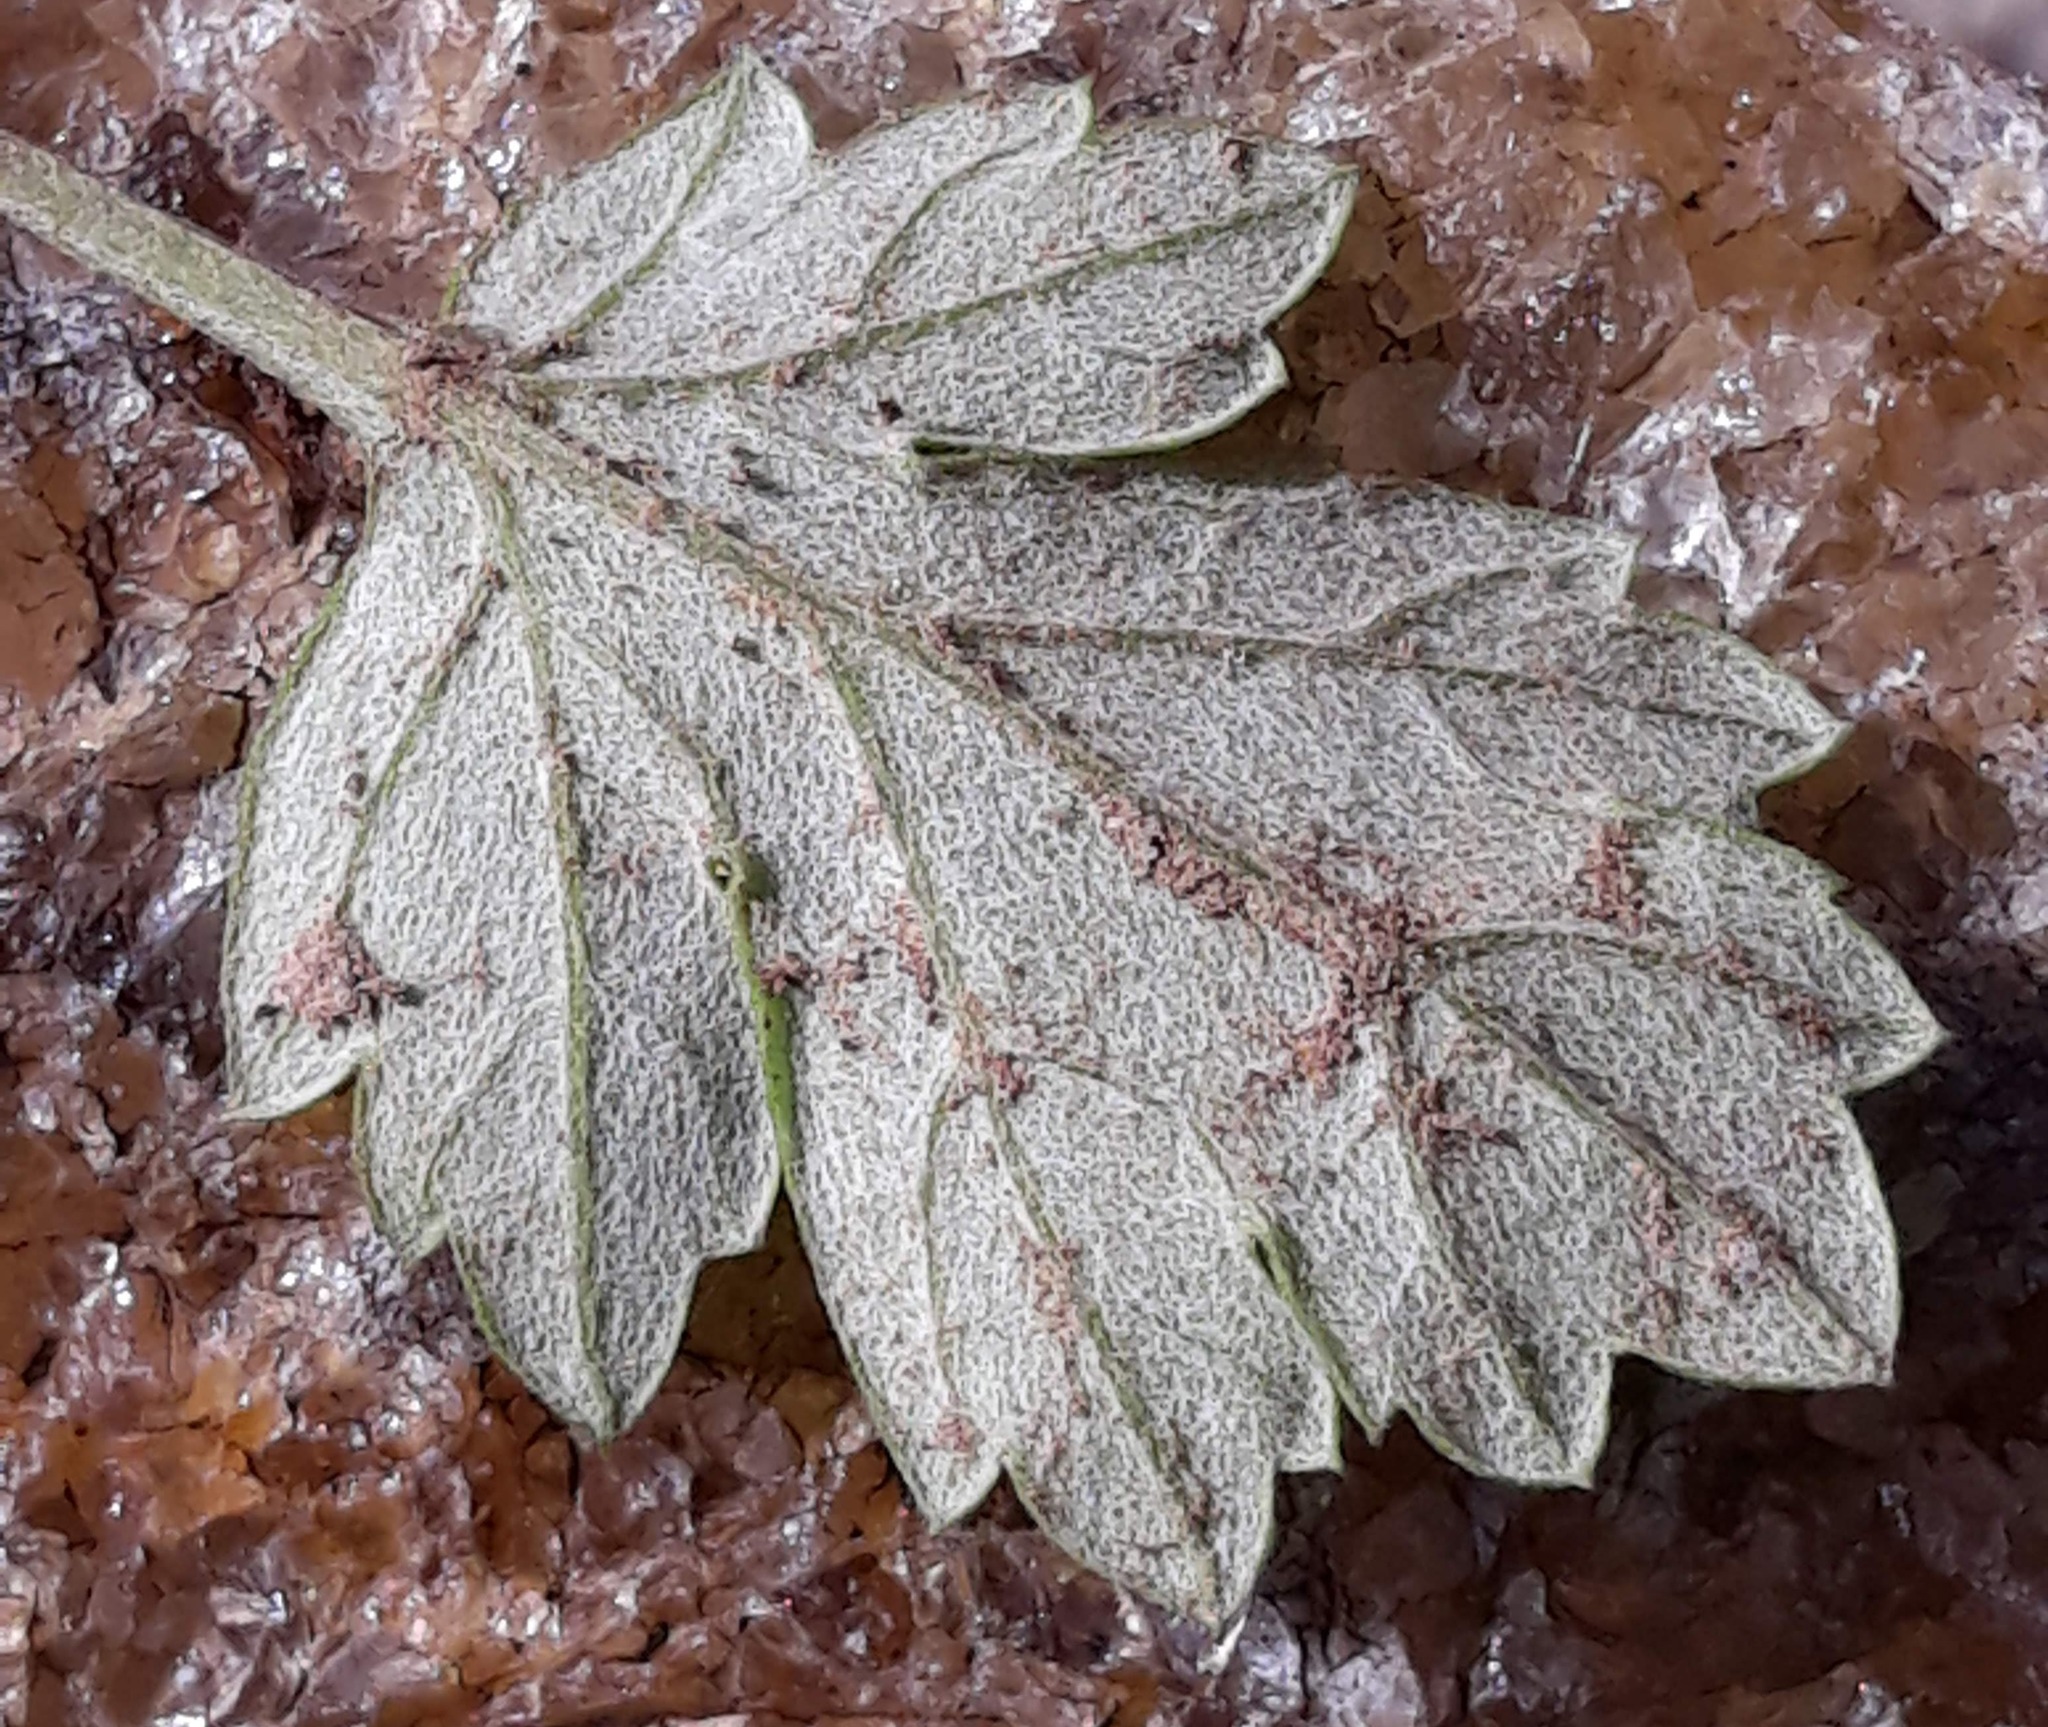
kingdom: Plantae
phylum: Tracheophyta
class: Magnoliopsida
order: Asterales
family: Asteraceae
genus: Artemisia
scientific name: Artemisia vulgaris
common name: Mugwort
